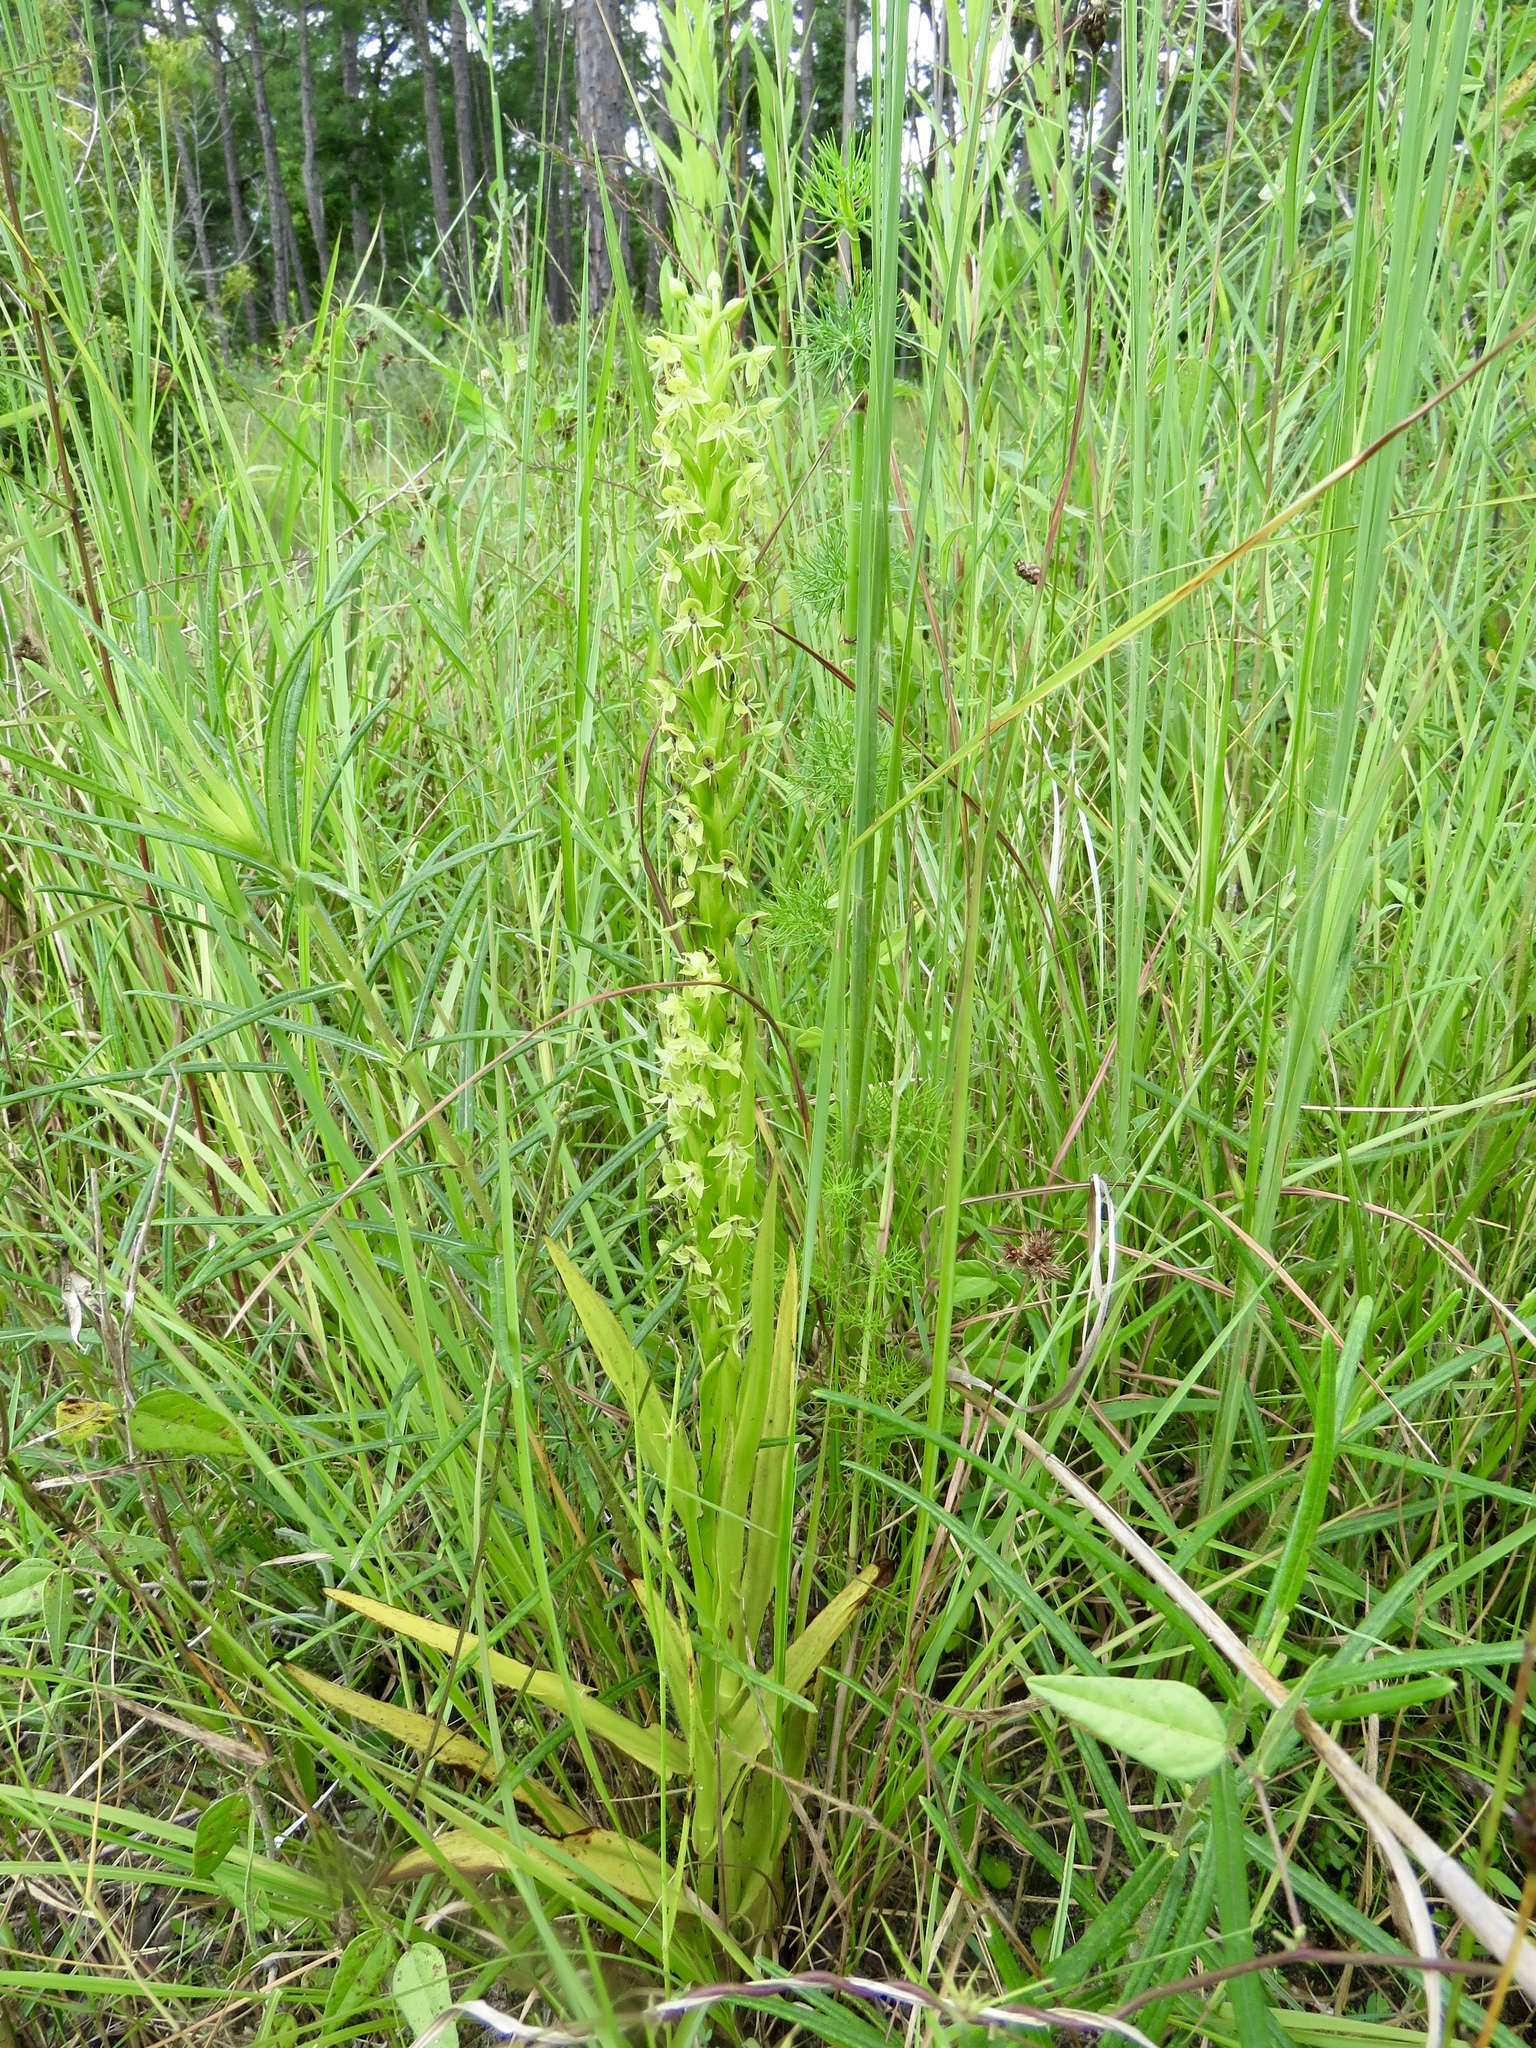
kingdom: Plantae
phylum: Tracheophyta
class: Liliopsida
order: Asparagales
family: Orchidaceae
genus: Habenaria
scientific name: Habenaria repens
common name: Water orchid
